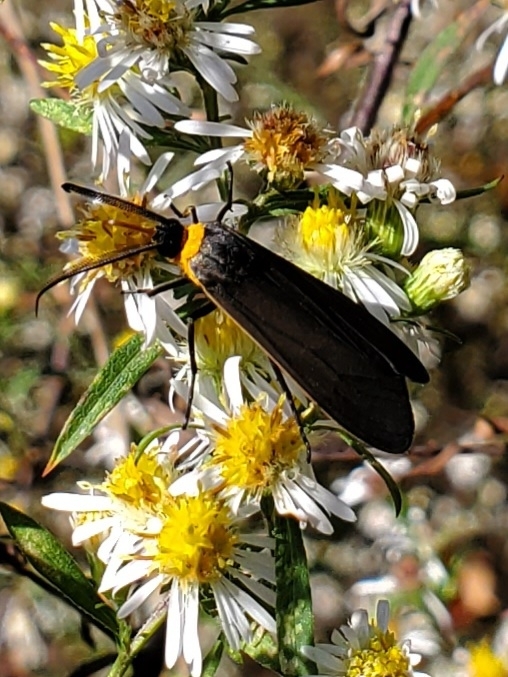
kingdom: Animalia
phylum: Arthropoda
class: Insecta
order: Lepidoptera
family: Erebidae
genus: Cisseps
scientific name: Cisseps fulvicollis
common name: Yellow-collared scape moth
